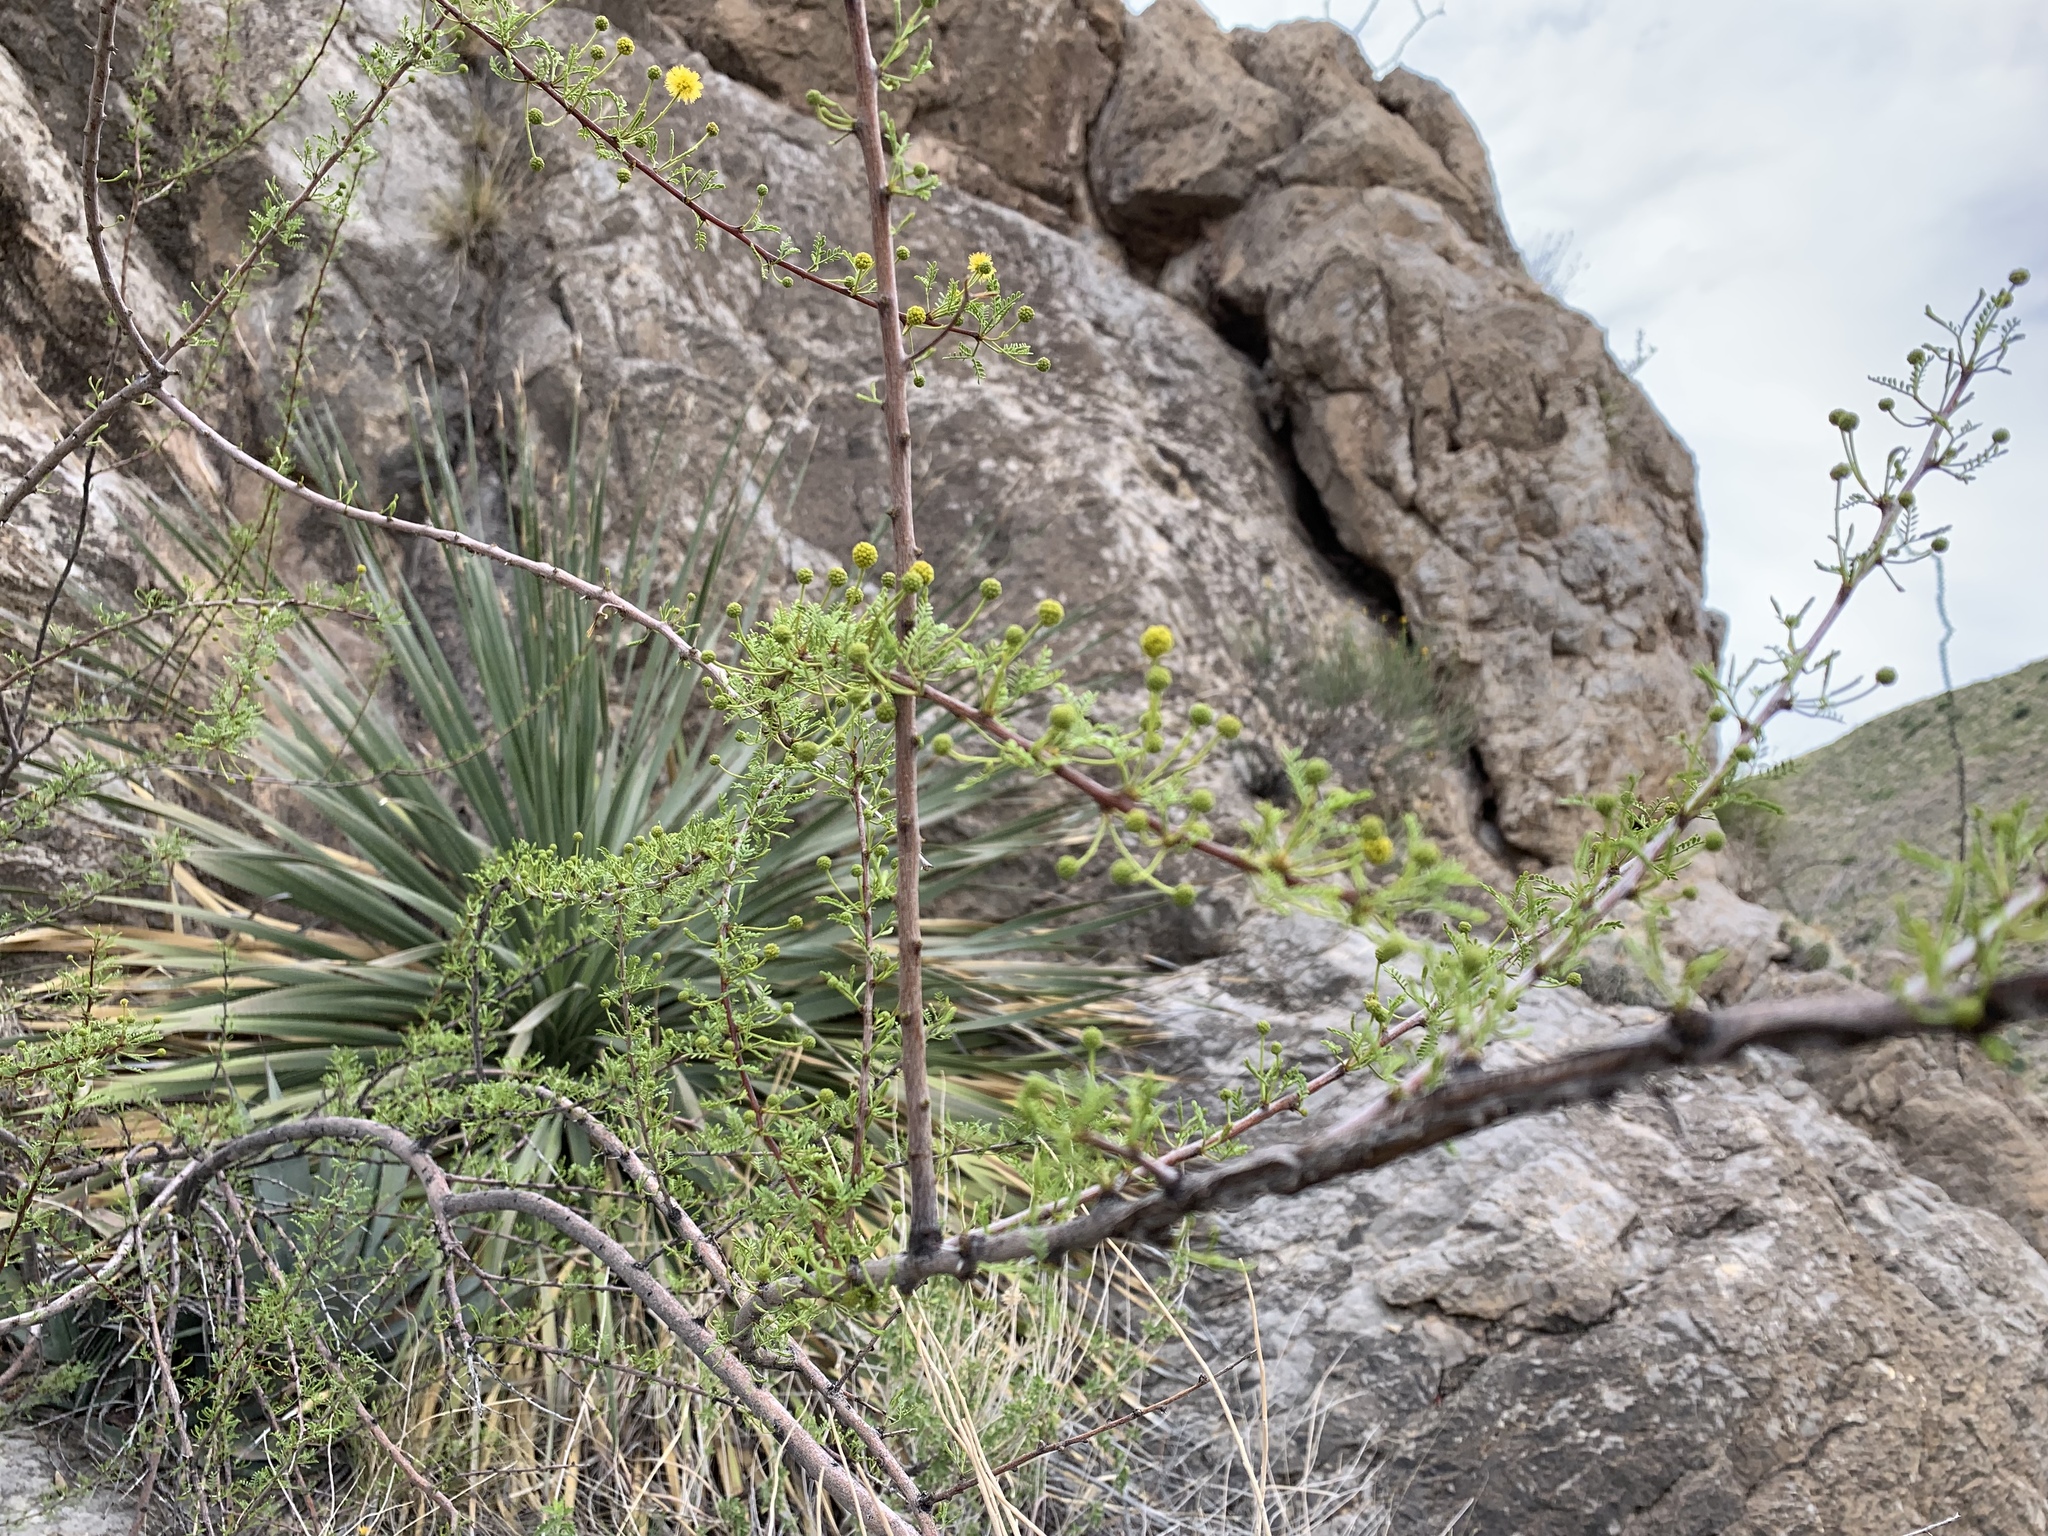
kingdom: Plantae
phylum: Tracheophyta
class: Magnoliopsida
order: Fabales
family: Fabaceae
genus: Vachellia
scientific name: Vachellia constricta
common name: Mescat acacia
